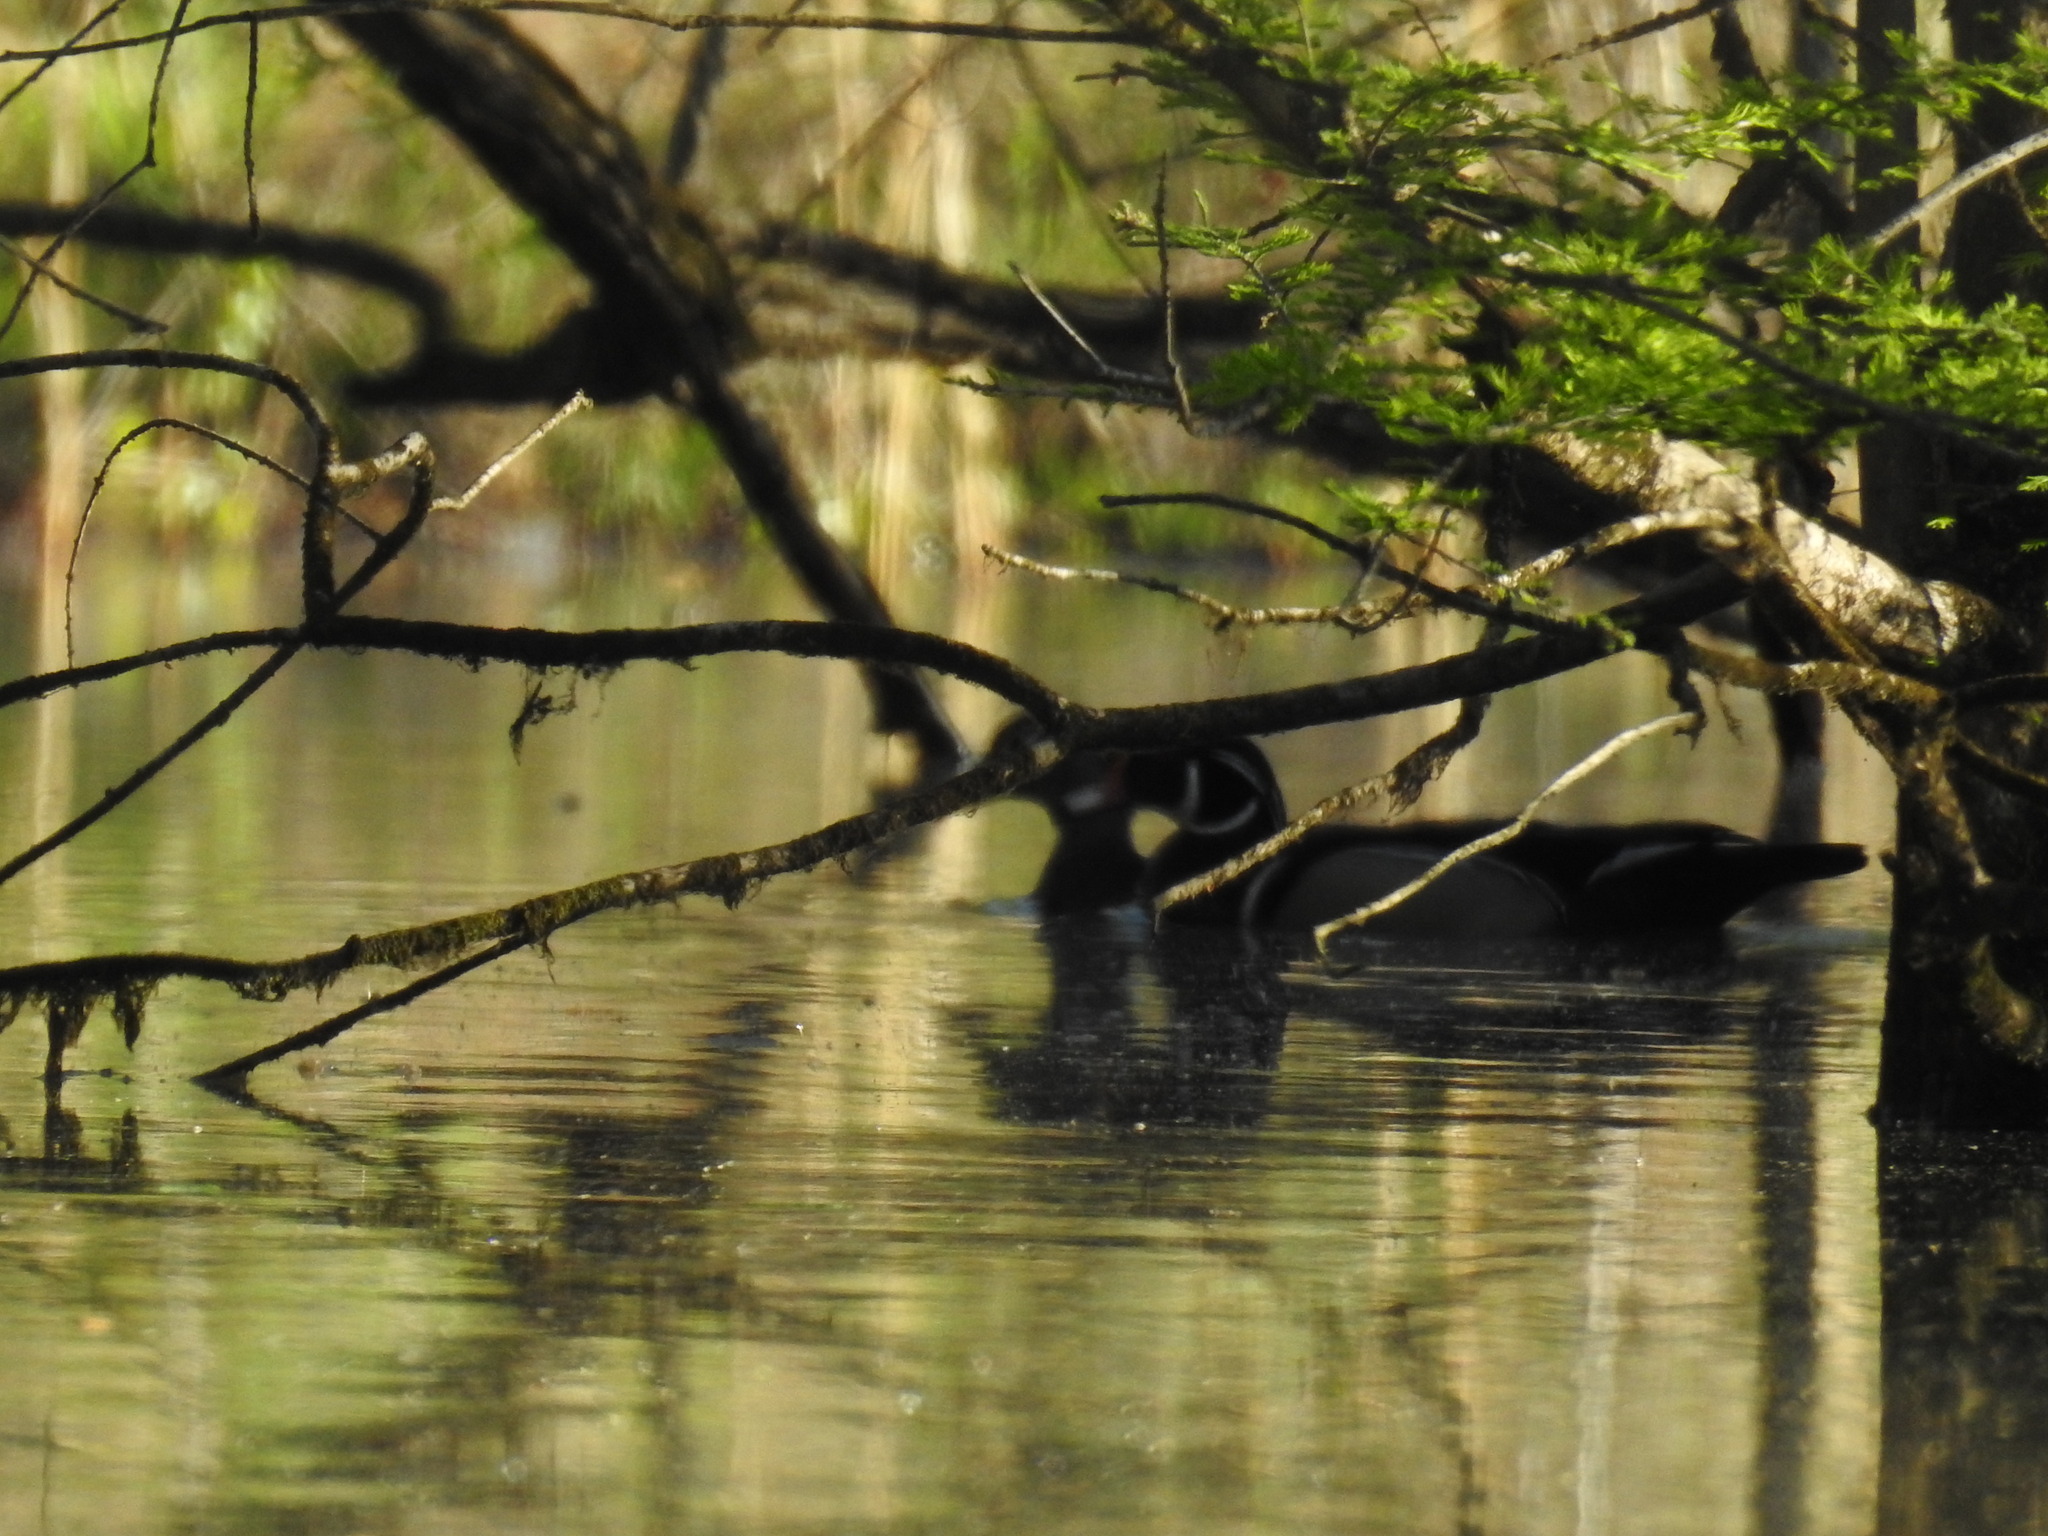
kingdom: Animalia
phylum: Chordata
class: Aves
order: Anseriformes
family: Anatidae
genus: Aix
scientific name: Aix sponsa
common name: Wood duck
